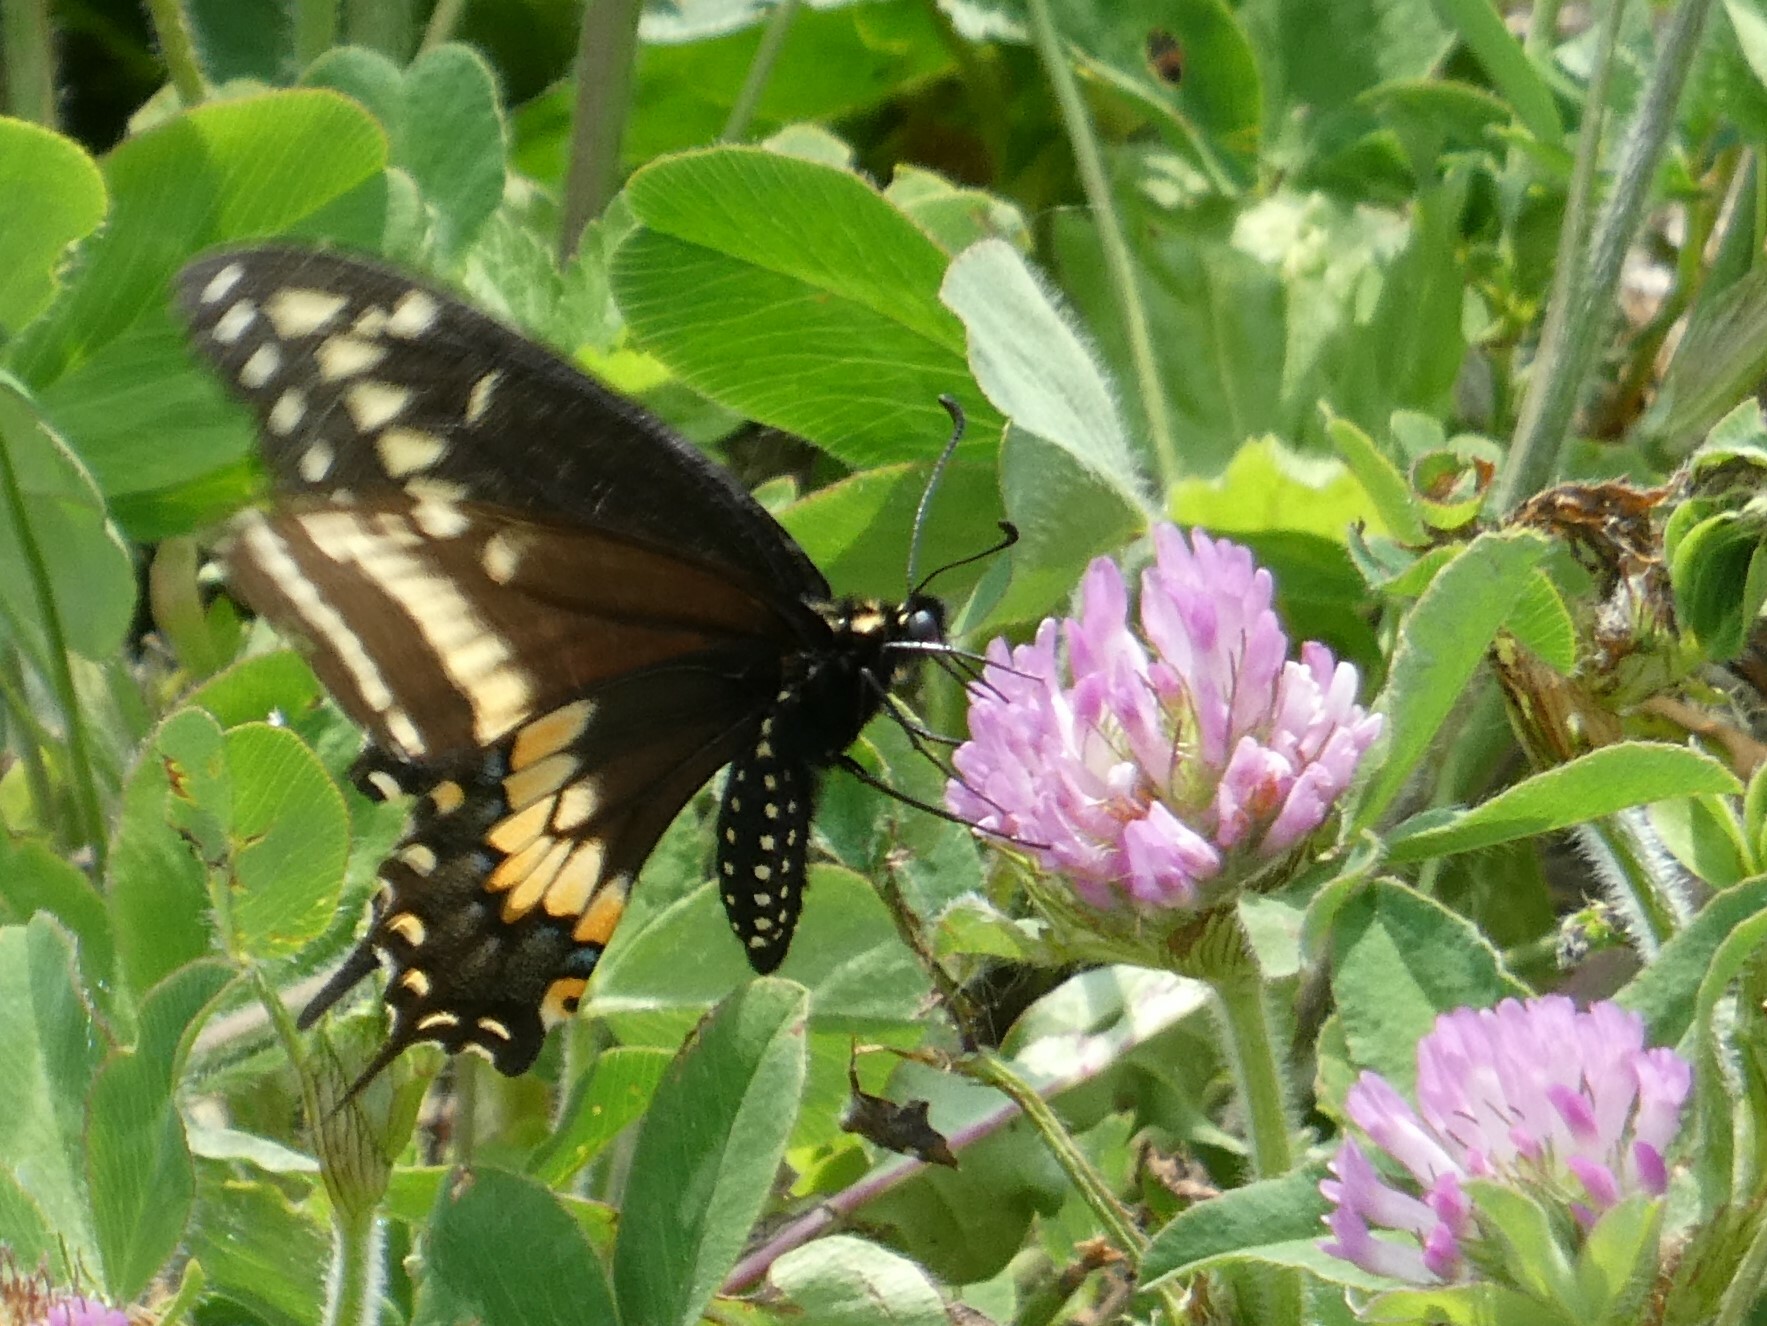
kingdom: Animalia
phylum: Arthropoda
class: Insecta
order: Lepidoptera
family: Papilionidae
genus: Papilio
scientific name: Papilio polyxenes
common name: Black swallowtail
